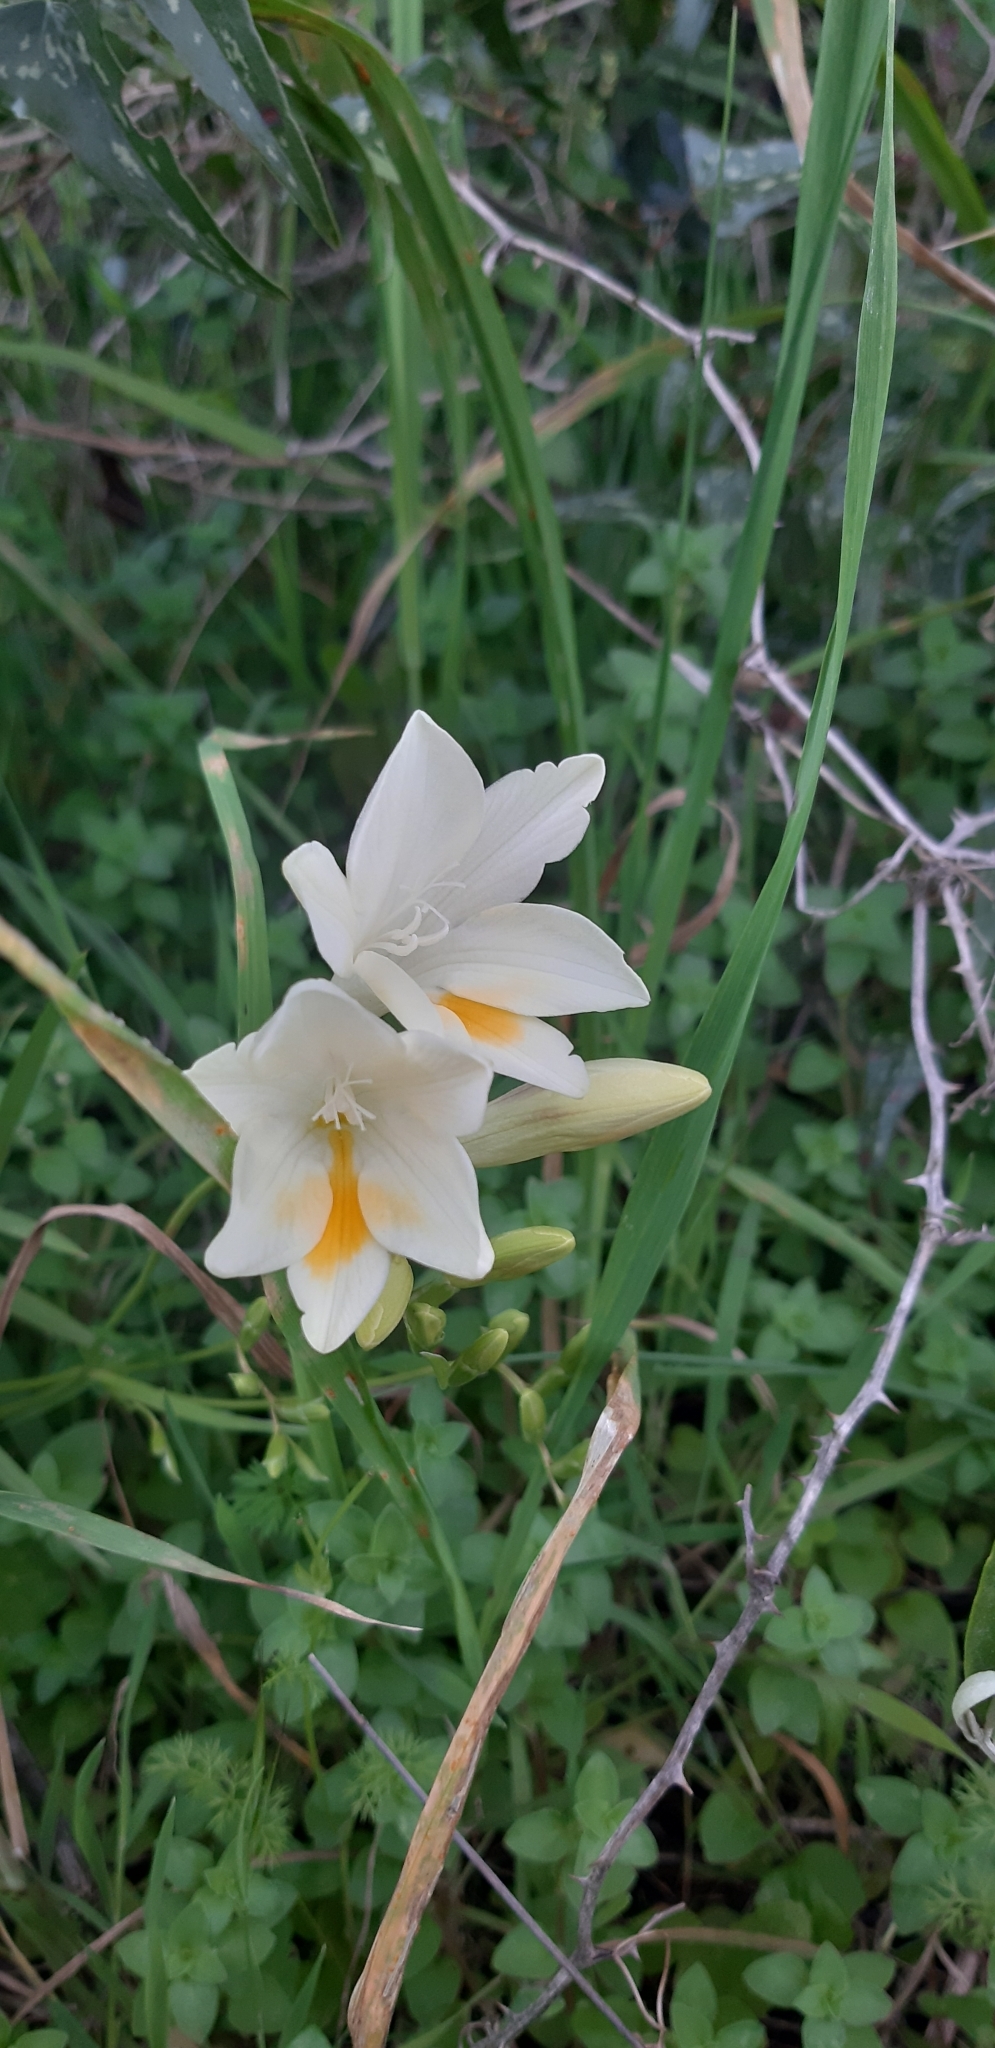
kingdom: Plantae
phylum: Tracheophyta
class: Liliopsida
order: Asparagales
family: Iridaceae
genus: Freesia
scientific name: Freesia leichtlinii
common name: Freesia
